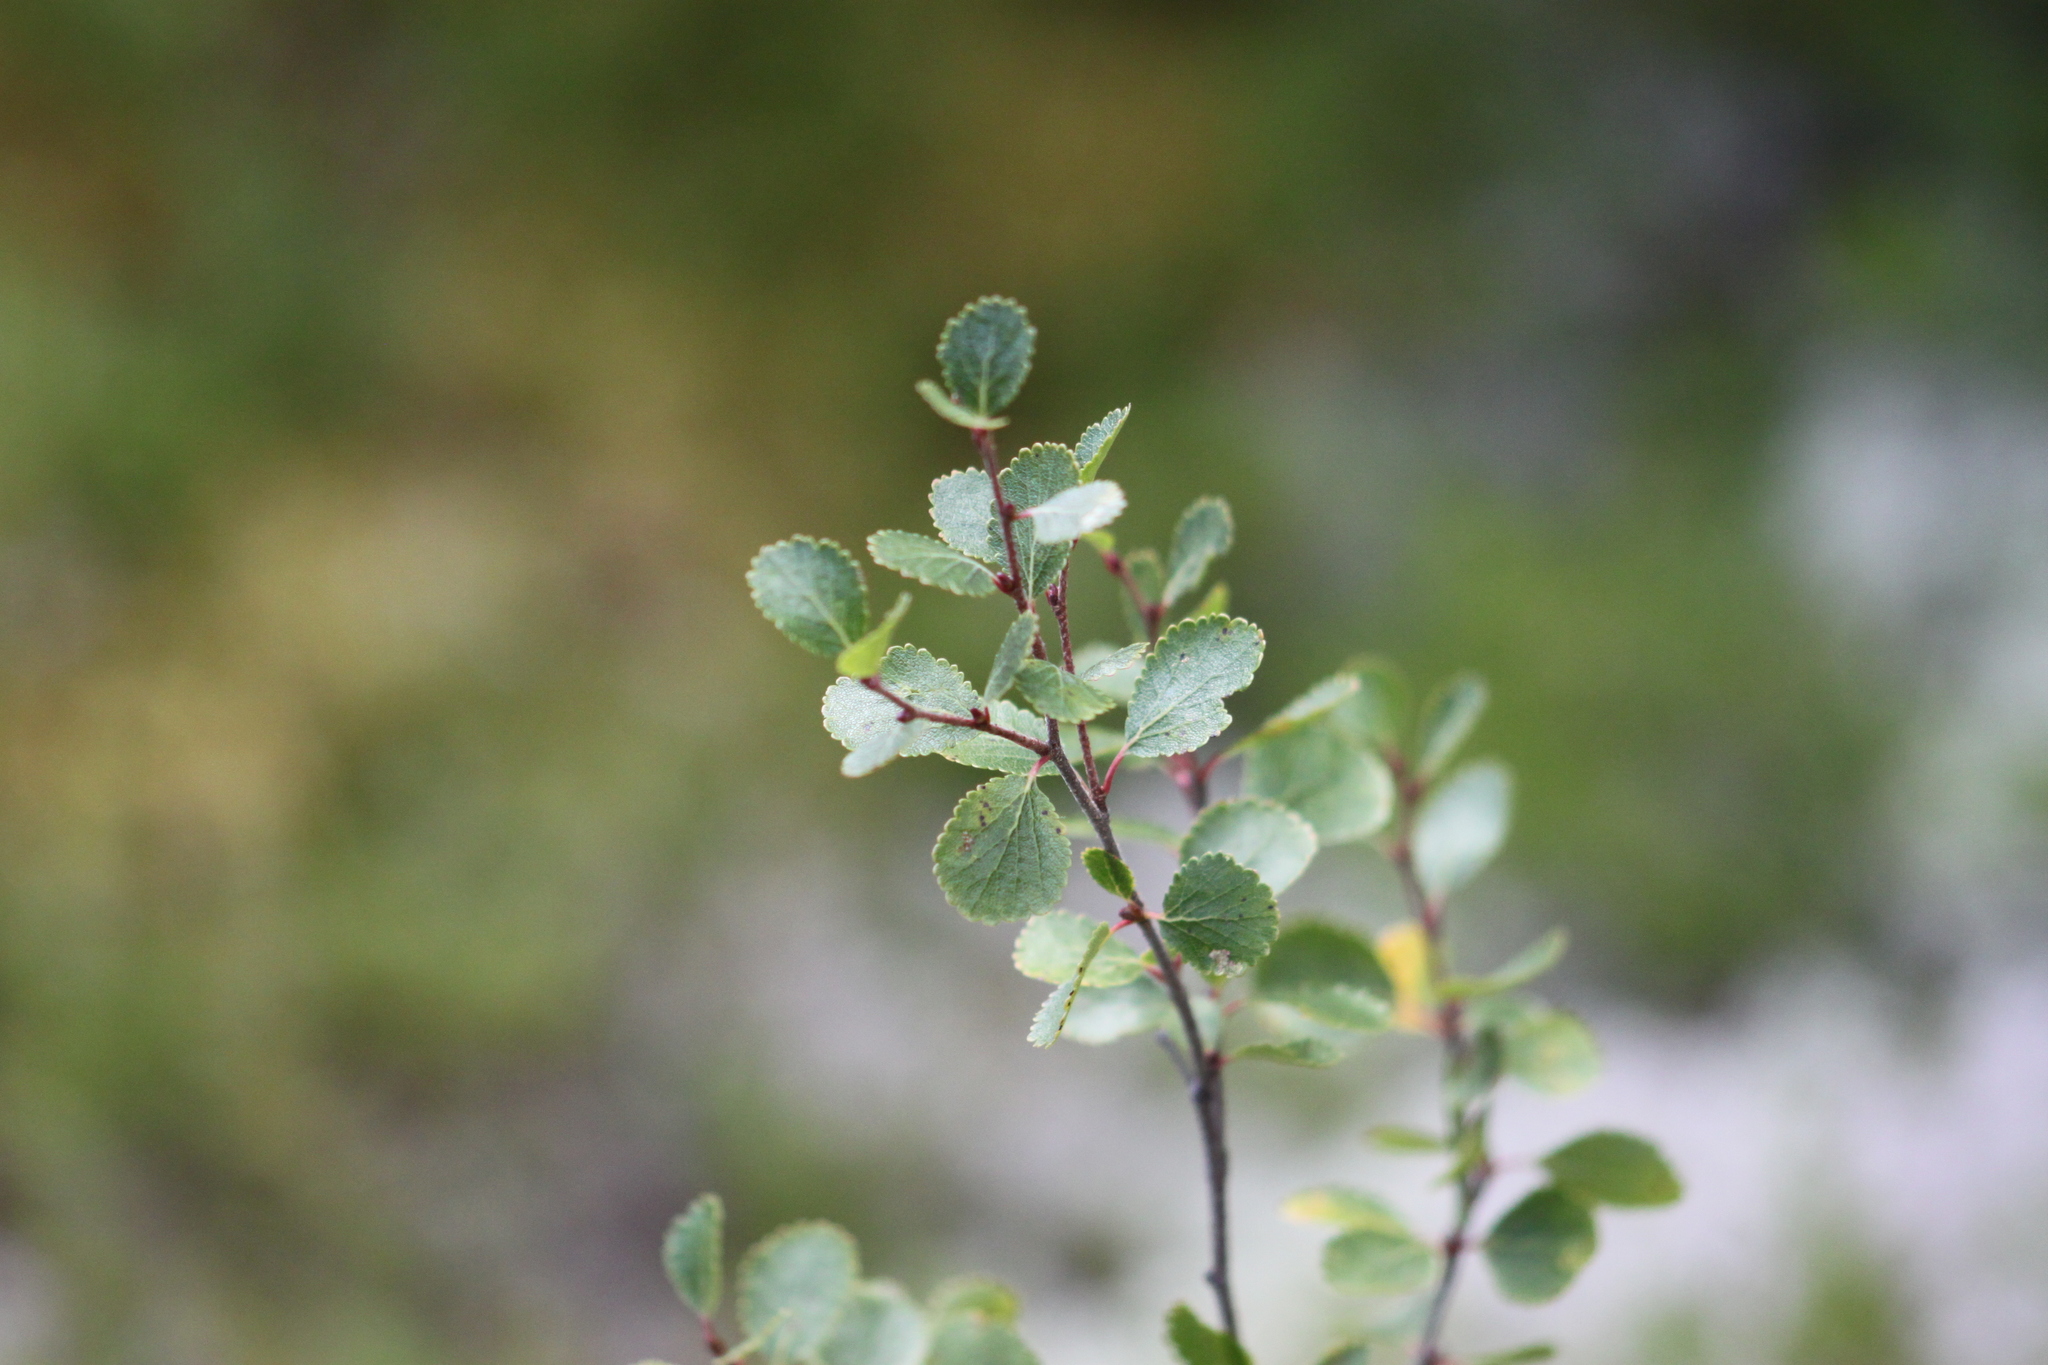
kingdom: Plantae
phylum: Tracheophyta
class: Magnoliopsida
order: Fagales
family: Betulaceae
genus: Betula
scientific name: Betula glandulosa
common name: Dwarf birch
